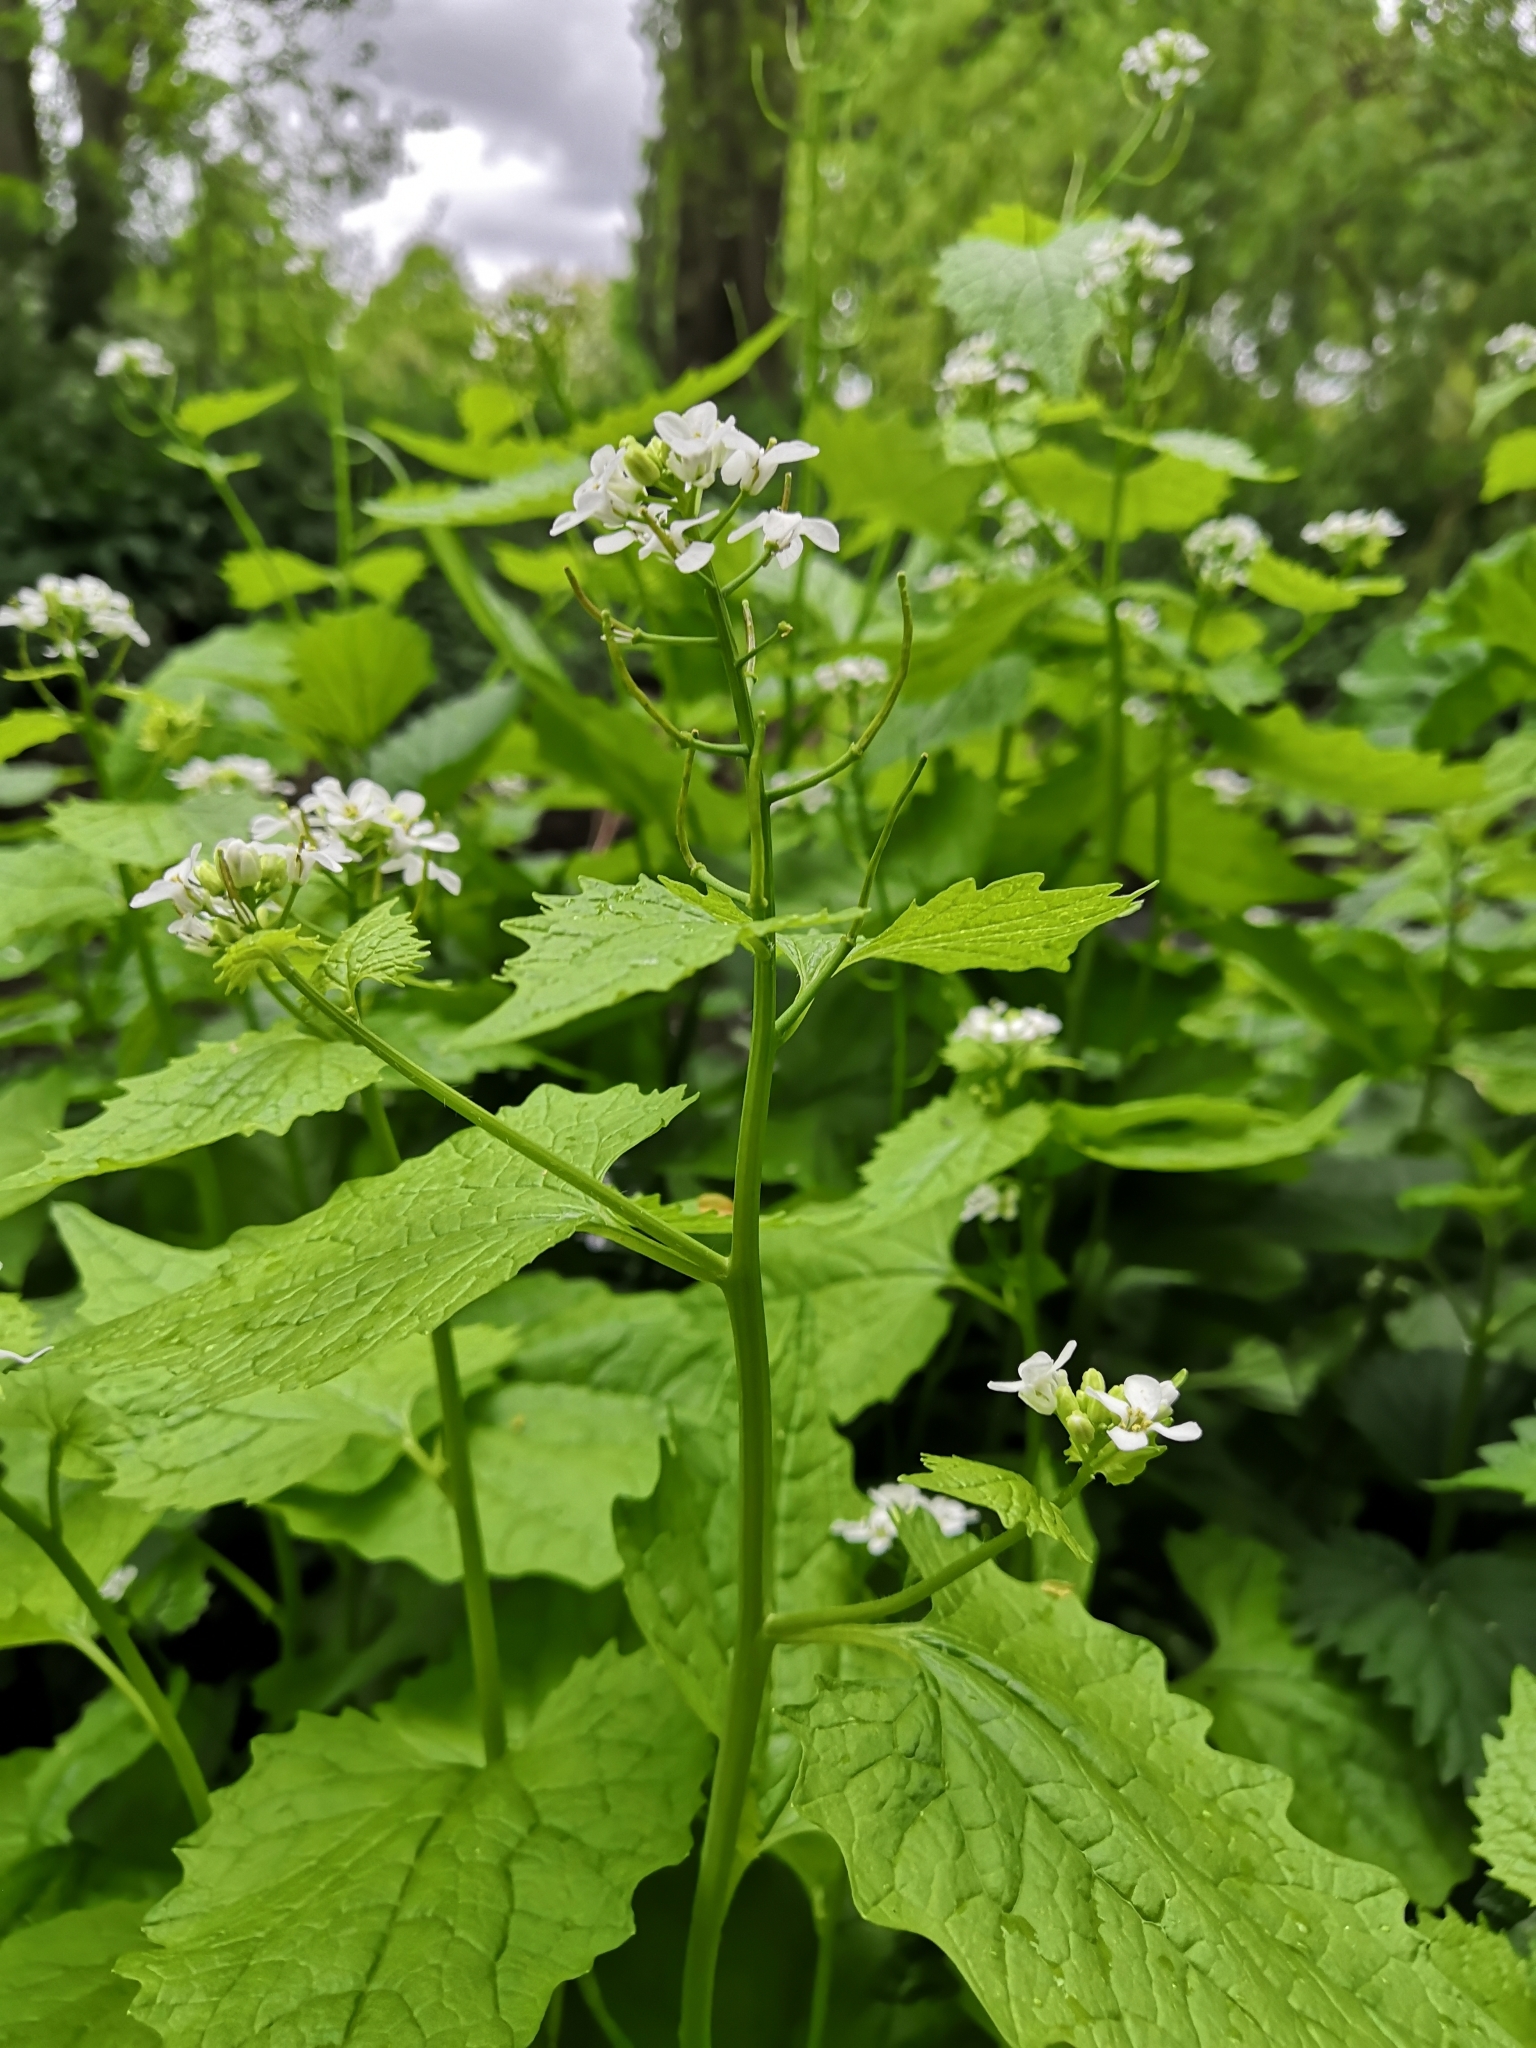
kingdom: Plantae
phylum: Tracheophyta
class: Magnoliopsida
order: Brassicales
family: Brassicaceae
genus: Alliaria
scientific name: Alliaria petiolata
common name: Garlic mustard
